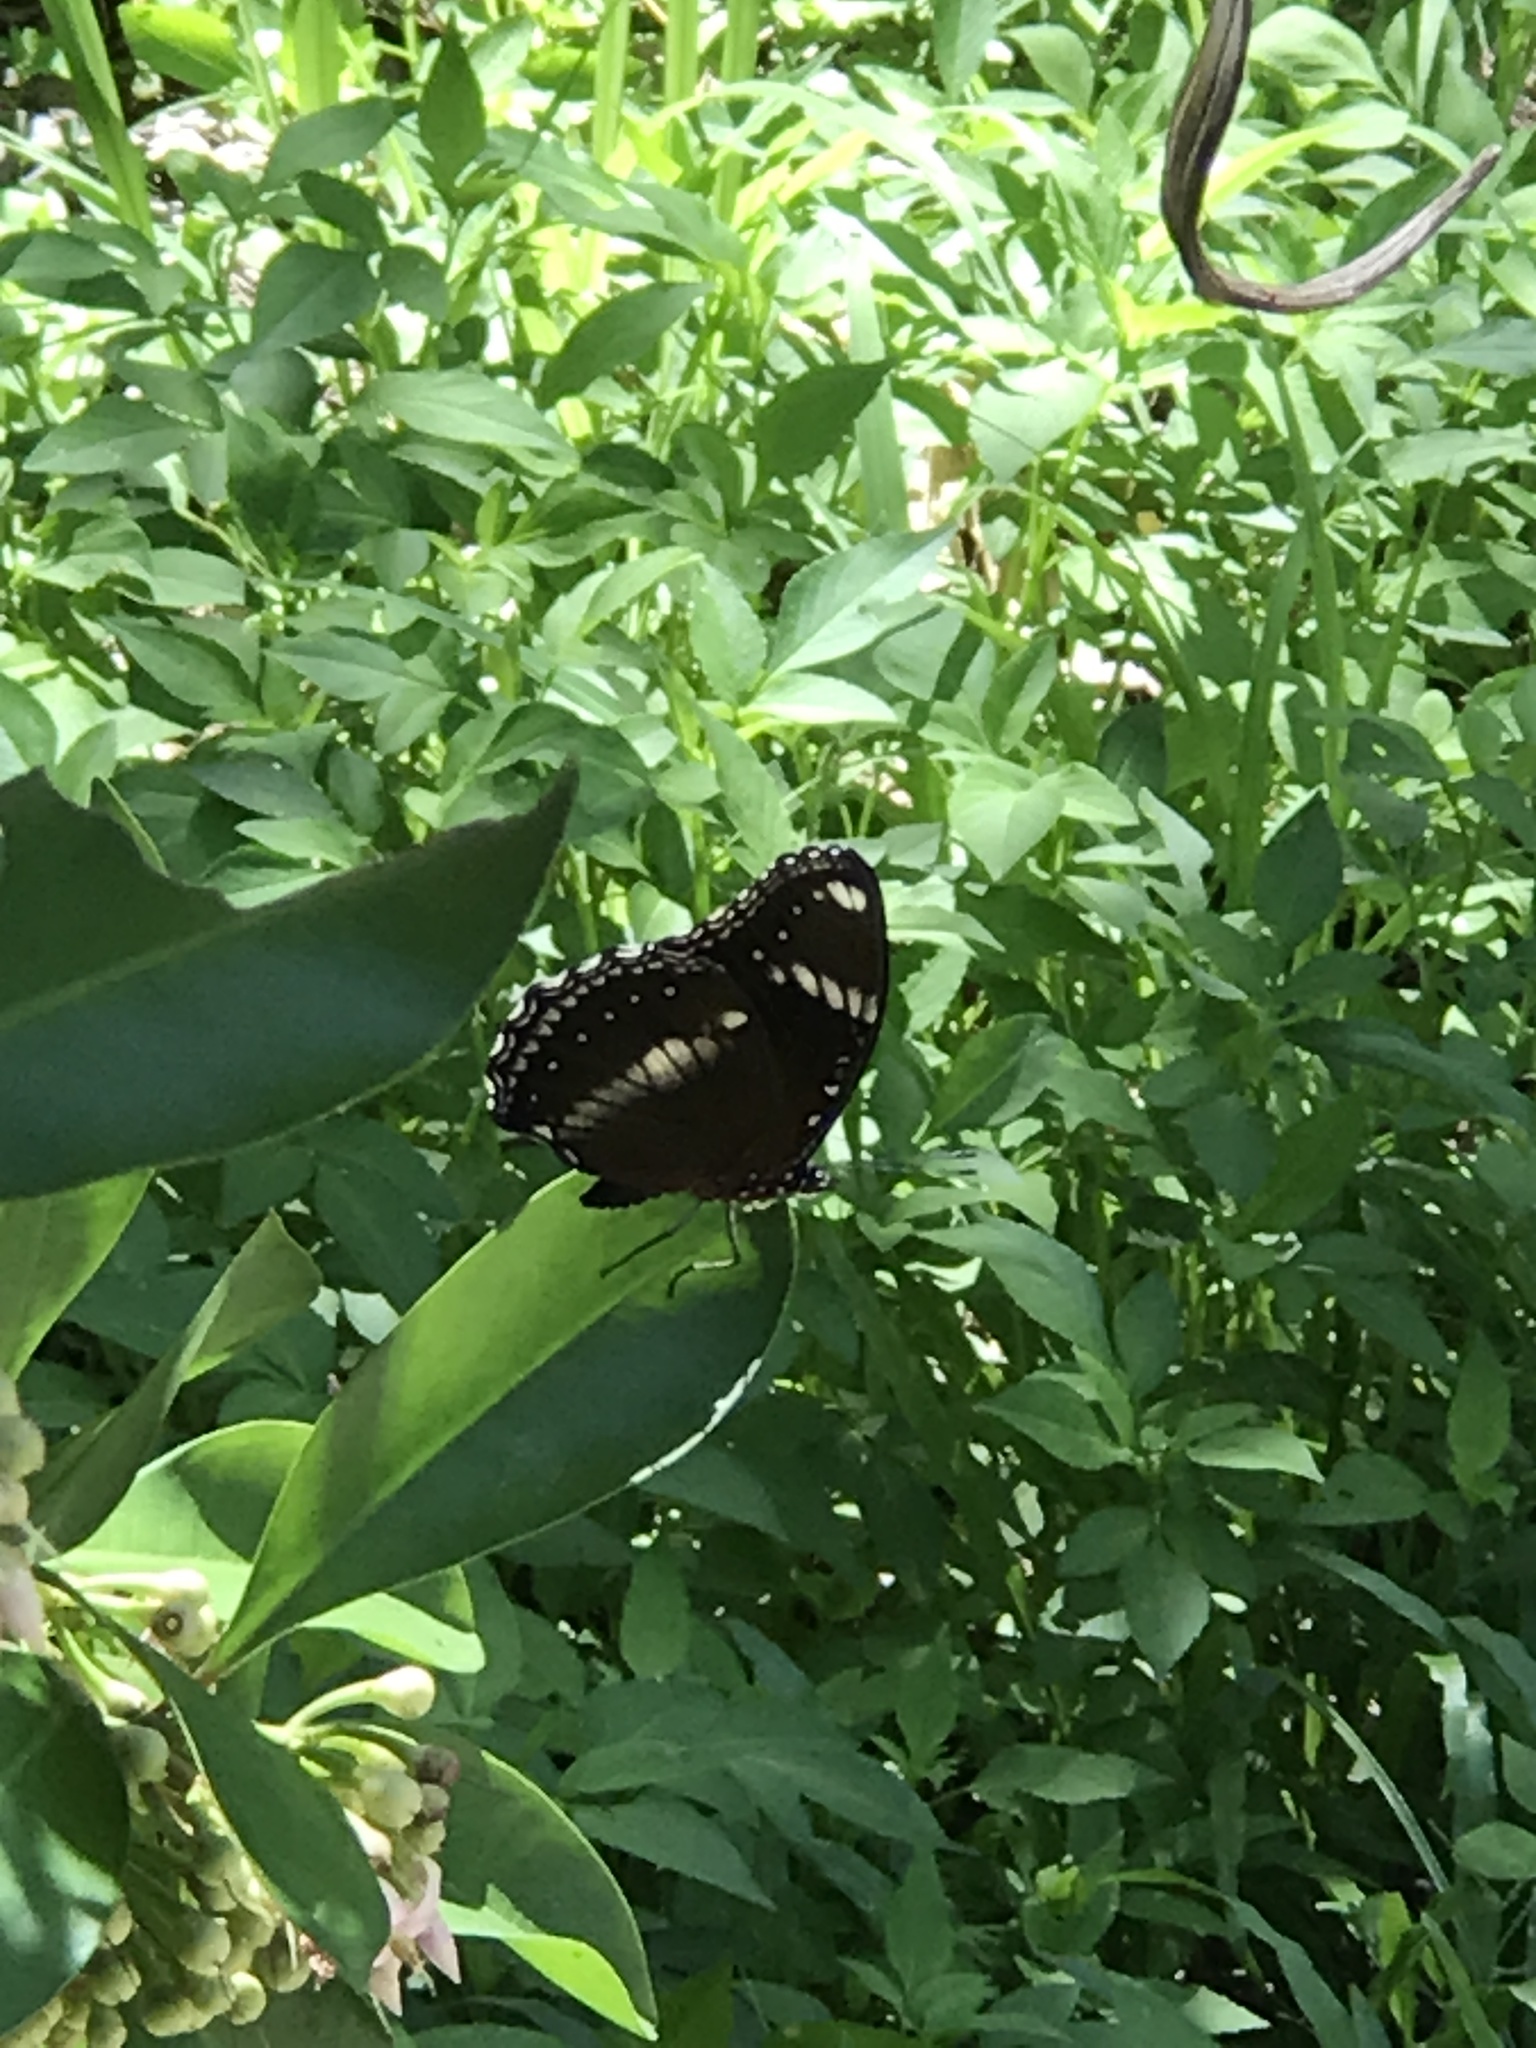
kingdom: Animalia
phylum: Arthropoda
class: Insecta
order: Lepidoptera
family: Nymphalidae
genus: Hypolimnas
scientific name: Hypolimnas bolina
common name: Great eggfly
